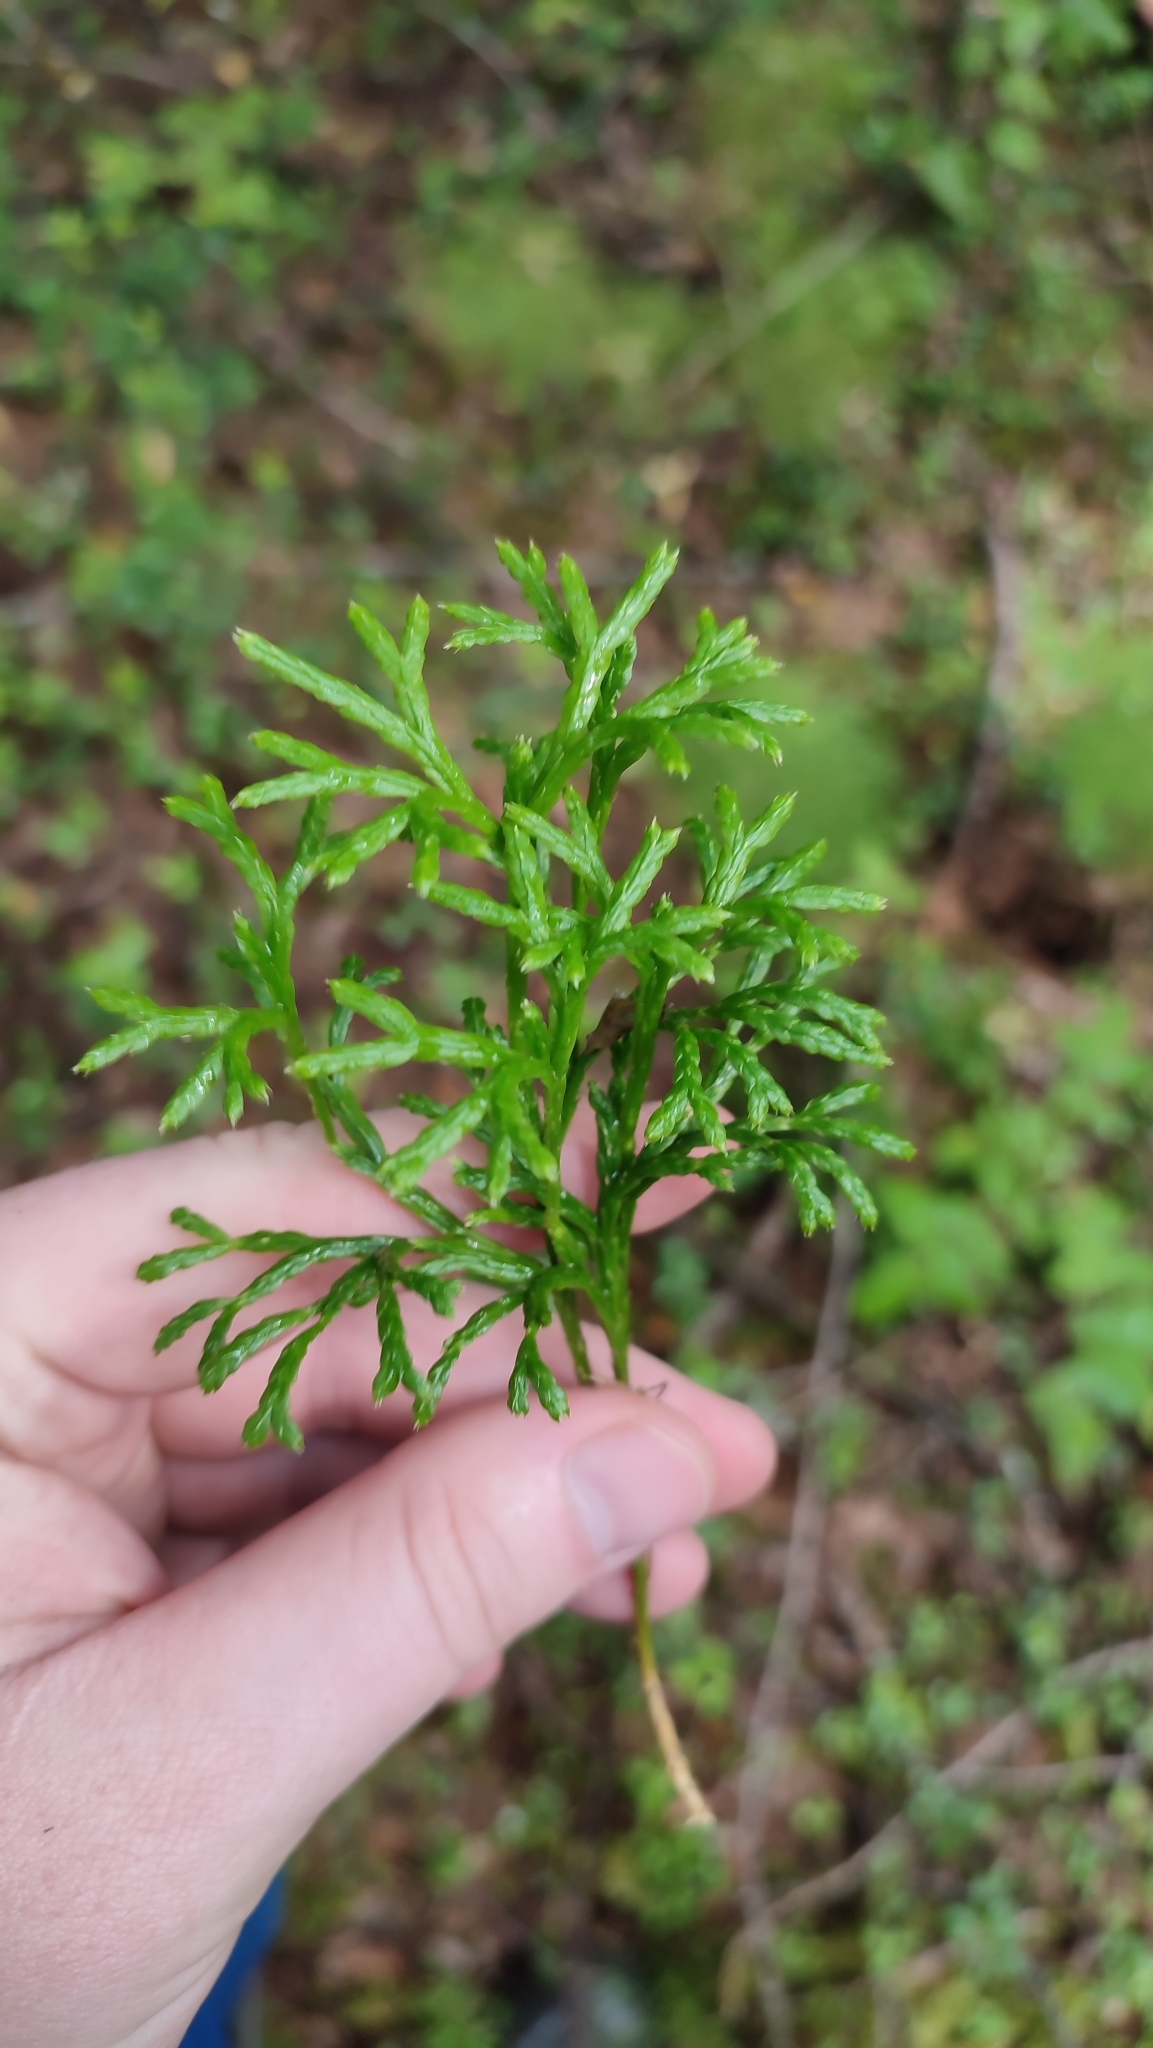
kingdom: Plantae
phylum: Tracheophyta
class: Lycopodiopsida
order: Lycopodiales
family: Lycopodiaceae
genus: Diphasiastrum
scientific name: Diphasiastrum complanatum
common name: Northern running-pine
